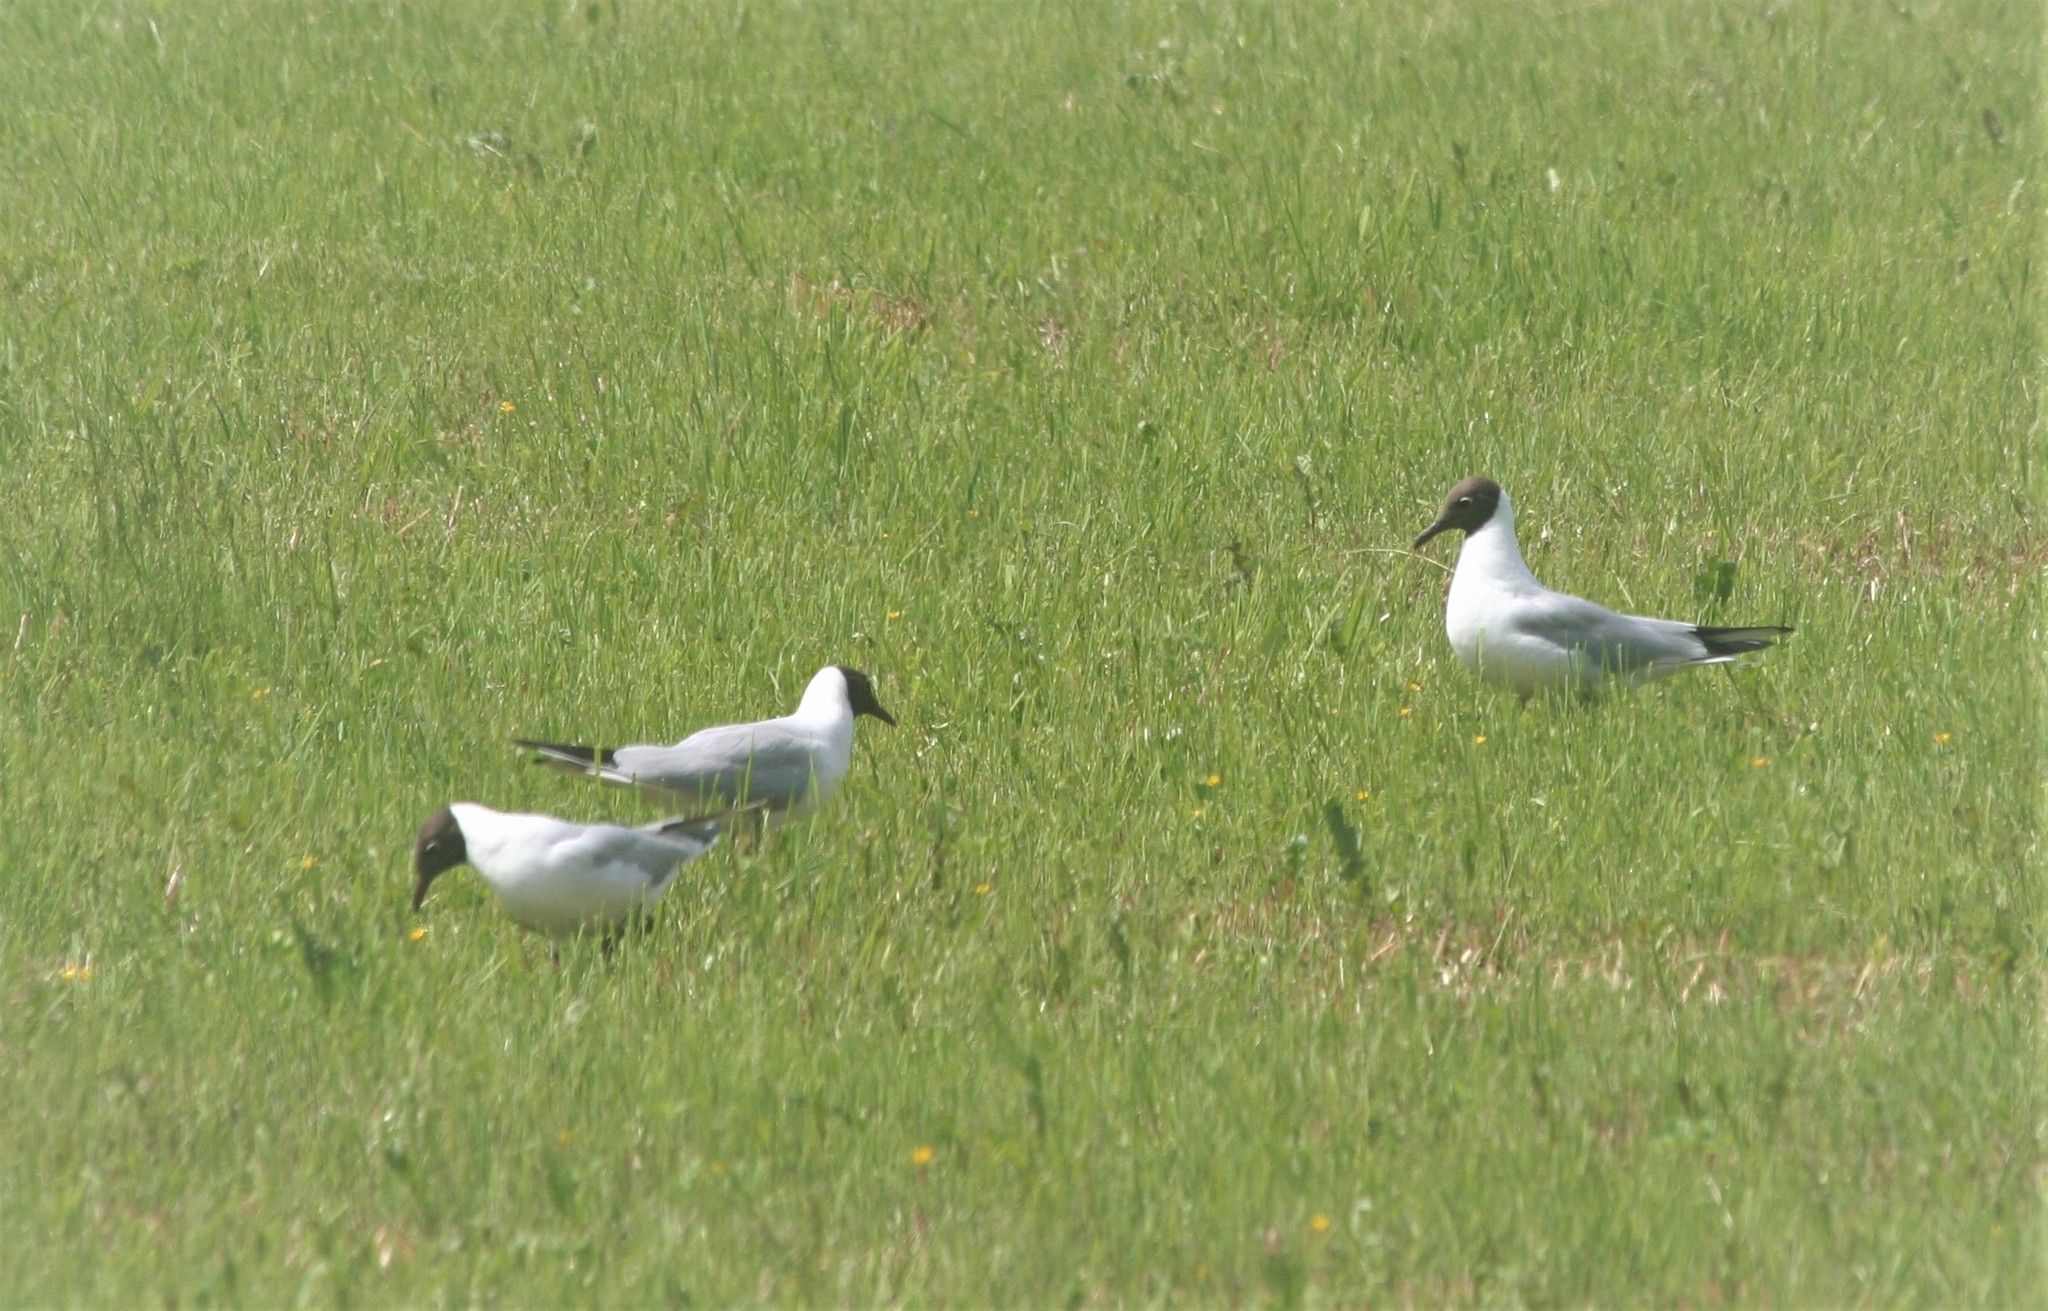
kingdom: Animalia
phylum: Chordata
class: Aves
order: Charadriiformes
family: Laridae
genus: Chroicocephalus
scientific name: Chroicocephalus ridibundus
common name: Black-headed gull
